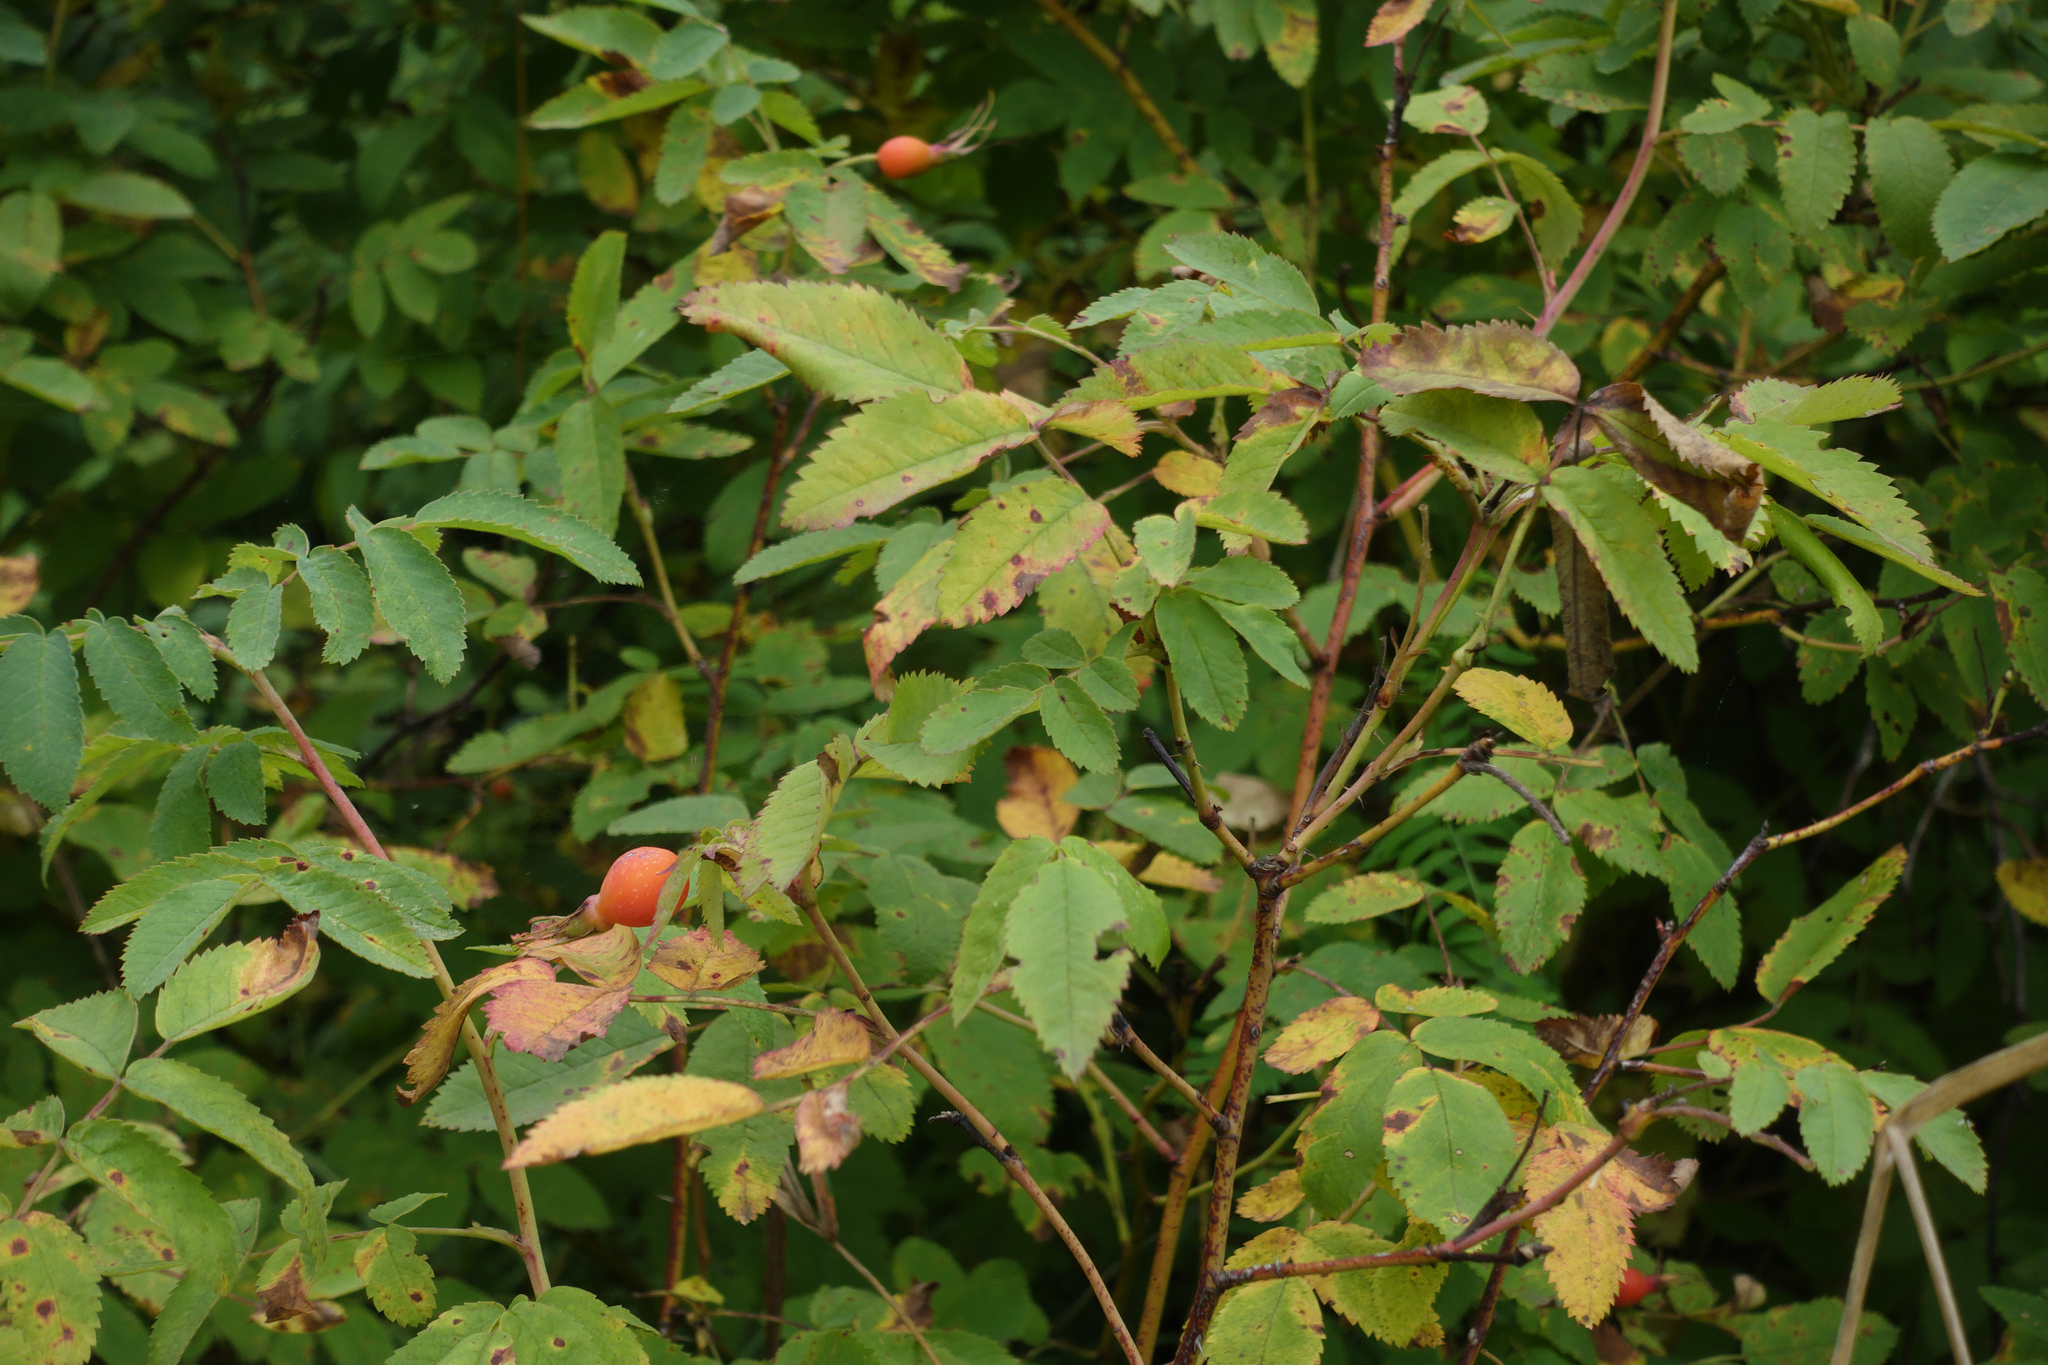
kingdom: Plantae
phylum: Tracheophyta
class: Magnoliopsida
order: Rosales
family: Rosaceae
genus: Rosa
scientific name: Rosa majalis
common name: Cinnamon rose
